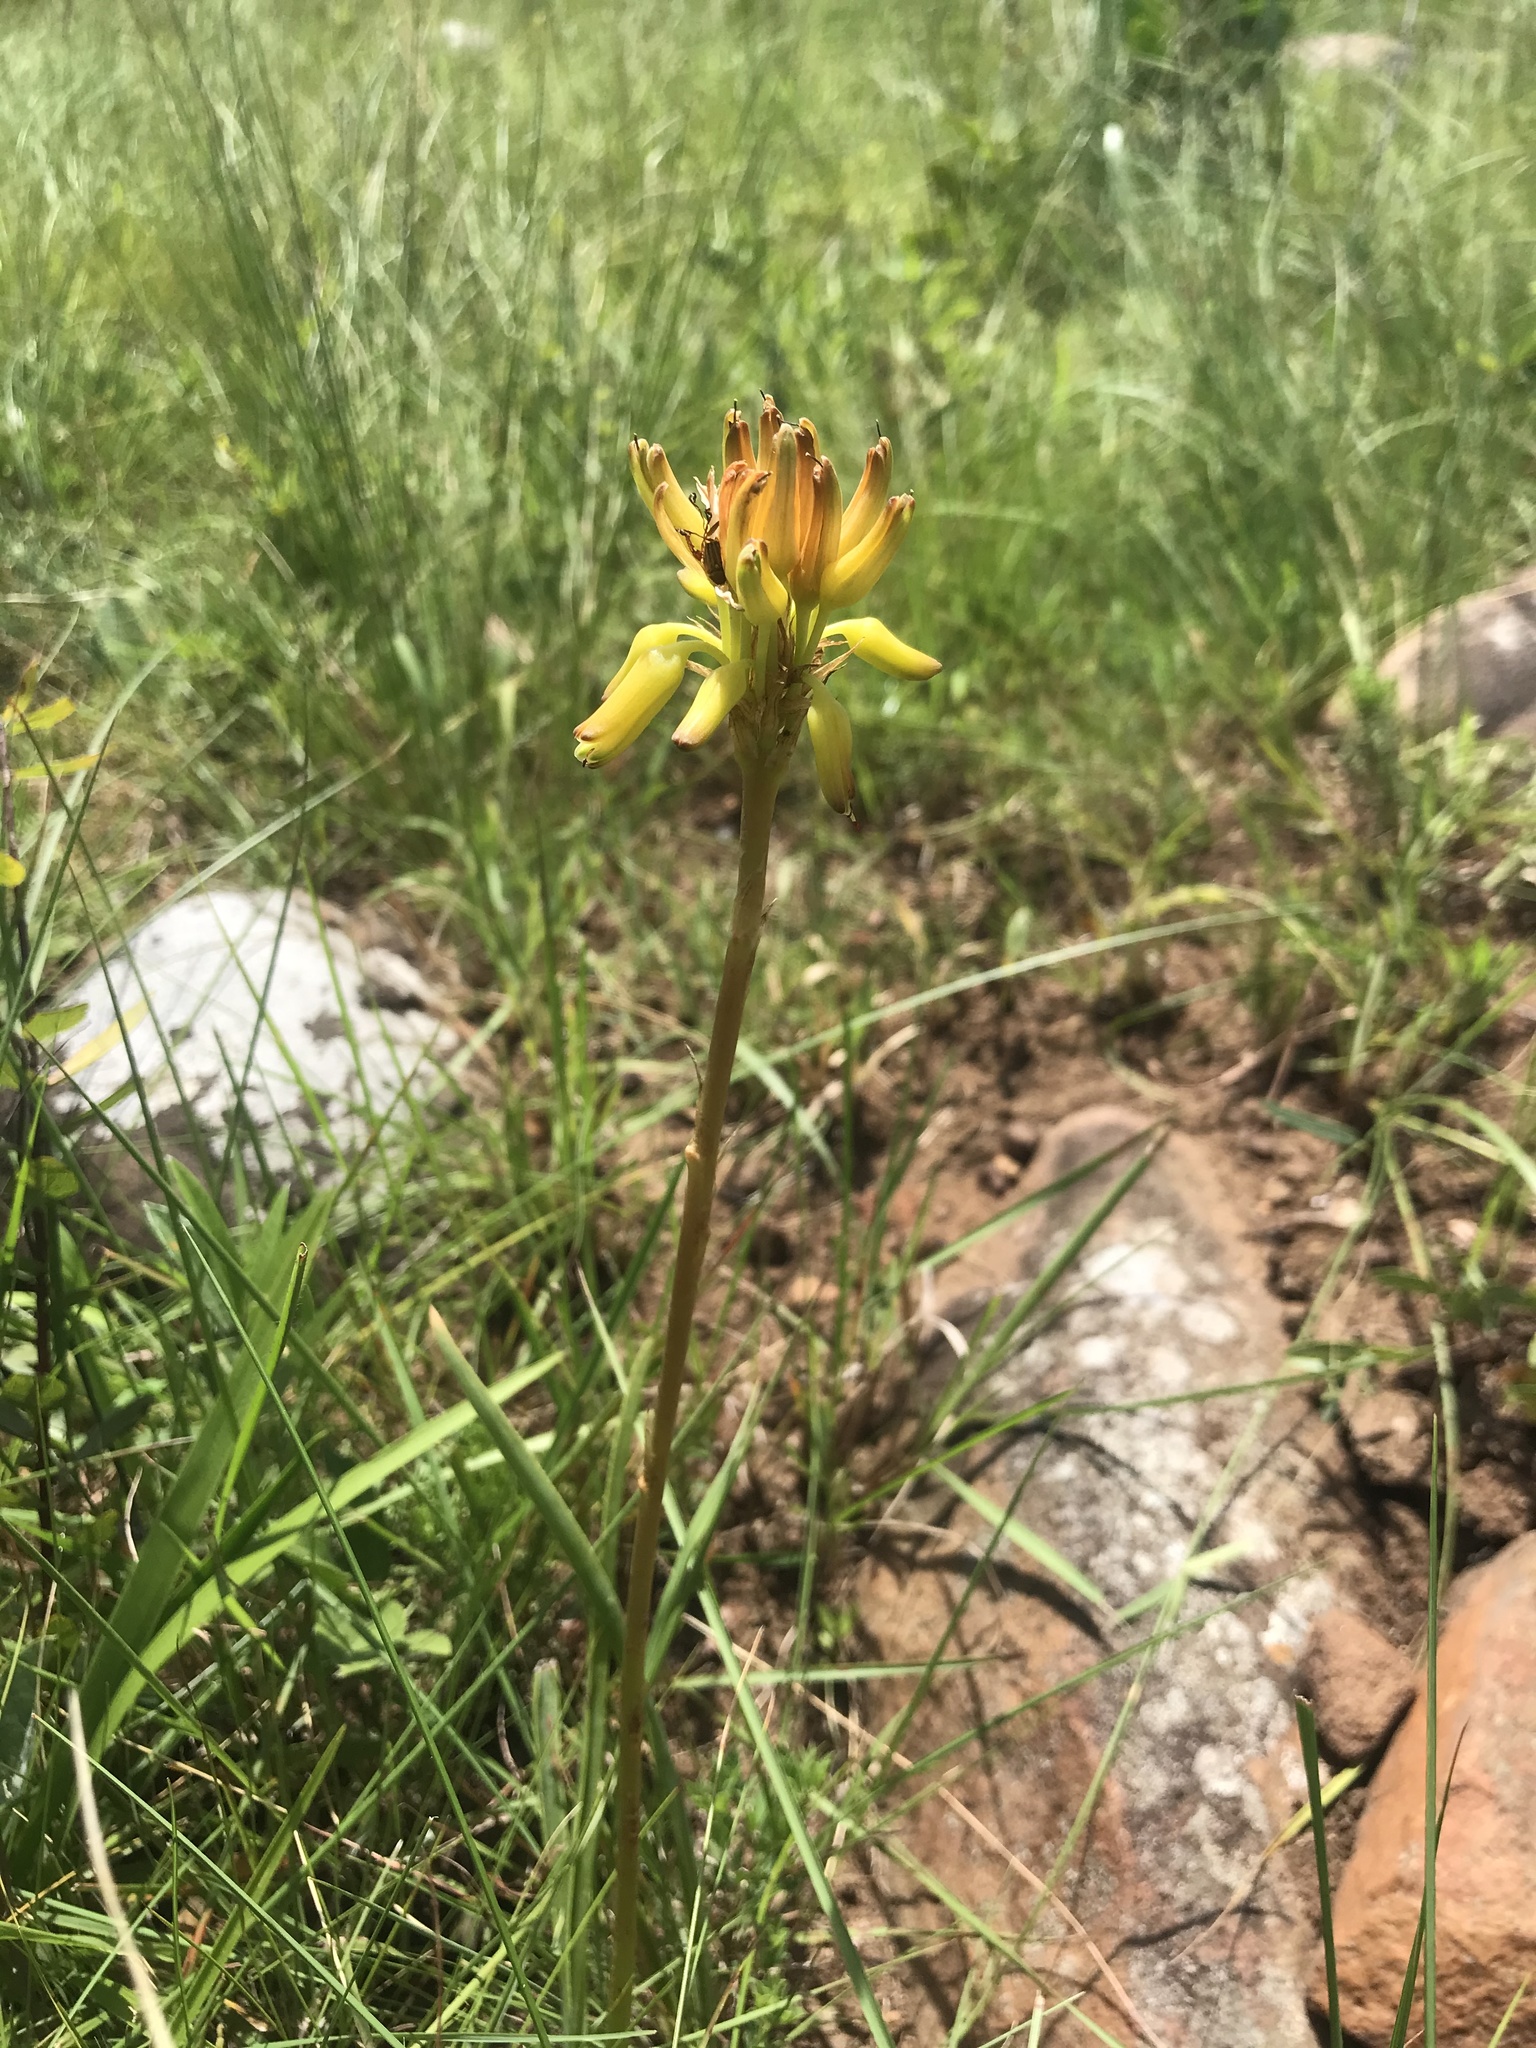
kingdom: Plantae
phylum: Tracheophyta
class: Liliopsida
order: Asparagales
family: Asphodelaceae
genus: Aloe
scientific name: Aloe linearifolia
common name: Dwarf yellow grass aloe
